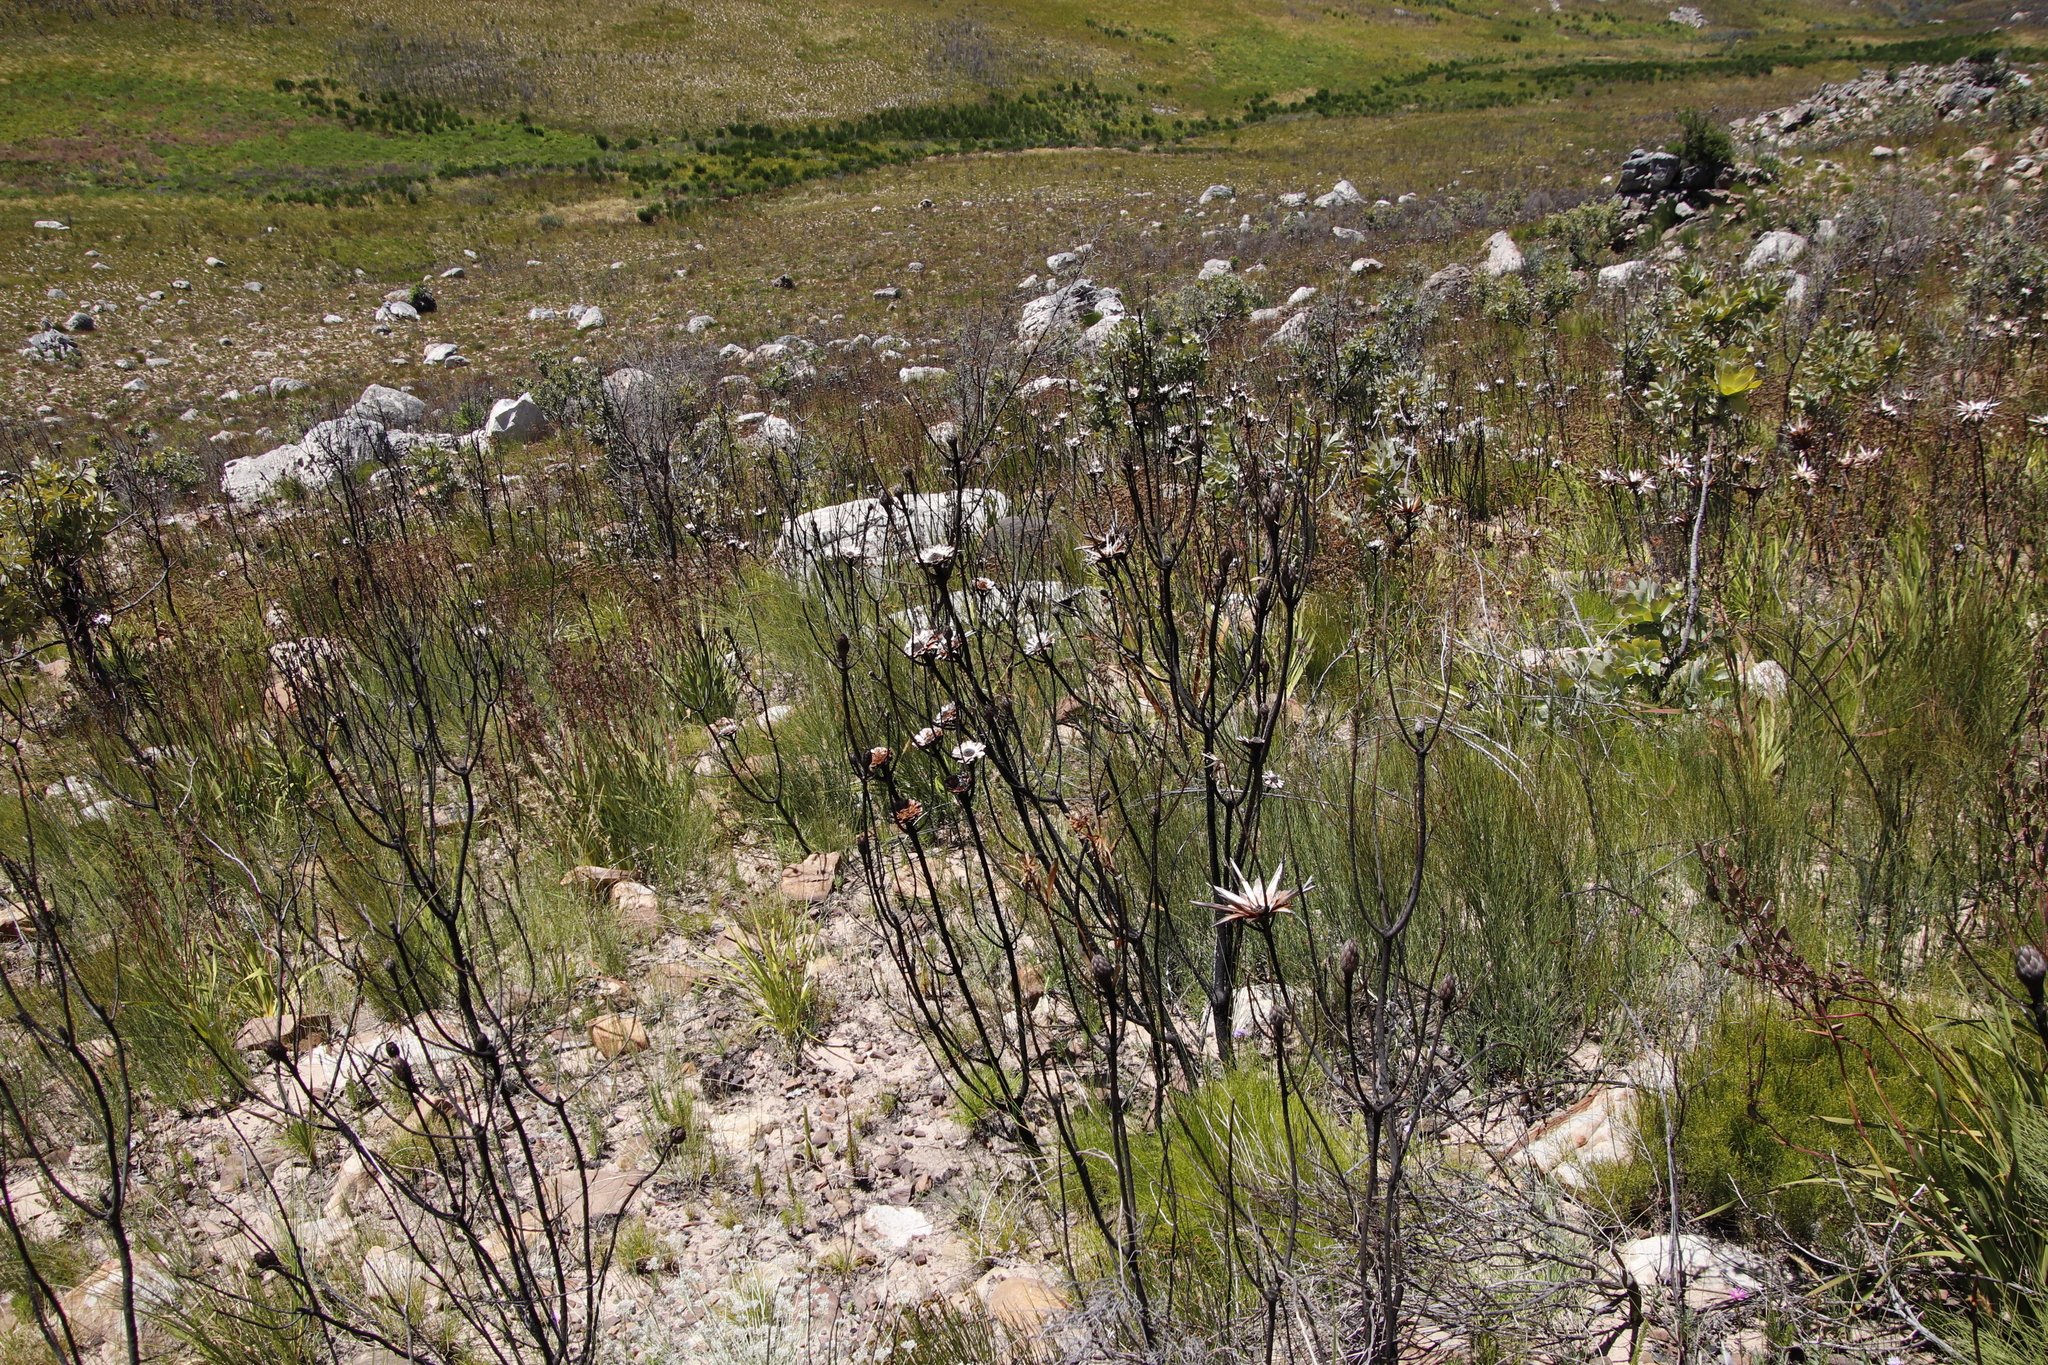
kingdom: Plantae
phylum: Tracheophyta
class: Magnoliopsida
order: Proteales
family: Proteaceae
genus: Protea
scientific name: Protea repens
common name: Sugarbush
